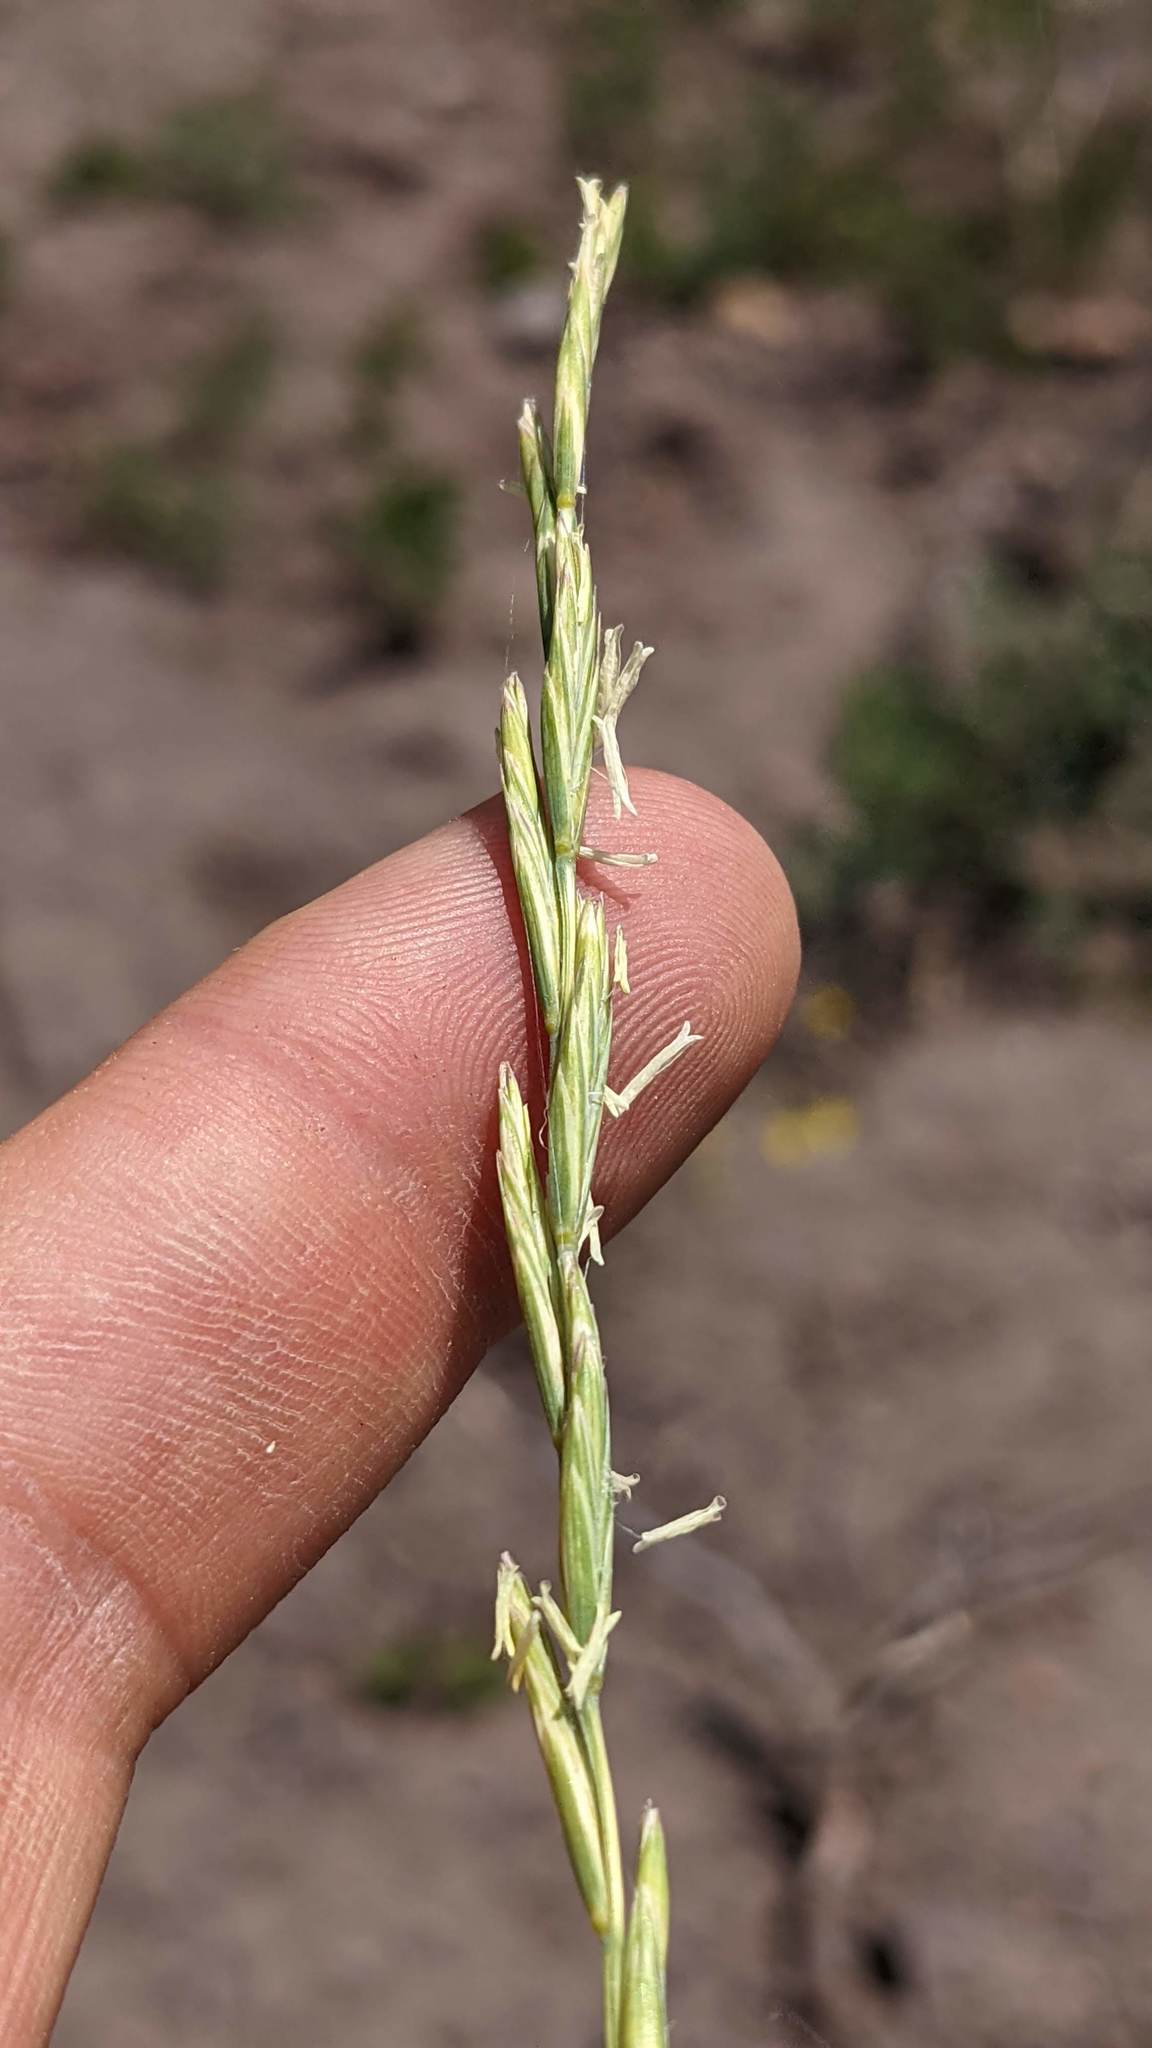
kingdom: Plantae
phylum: Tracheophyta
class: Liliopsida
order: Poales
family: Poaceae
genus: Pseudoroegneria
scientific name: Pseudoroegneria spicata
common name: Bluebunch wheatgrass
